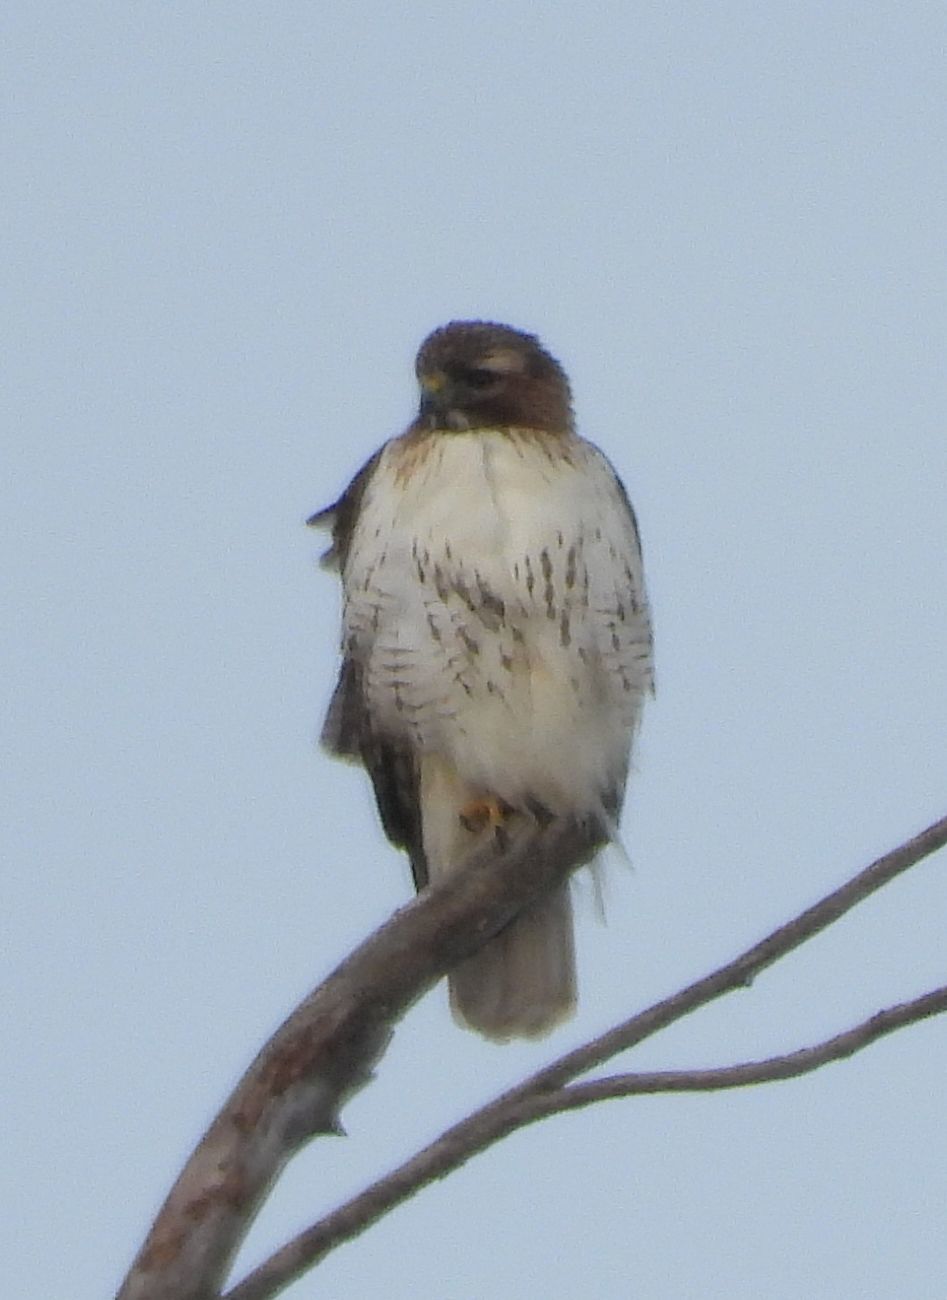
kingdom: Animalia
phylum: Chordata
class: Aves
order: Accipitriformes
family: Accipitridae
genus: Buteo
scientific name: Buteo jamaicensis
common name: Red-tailed hawk
